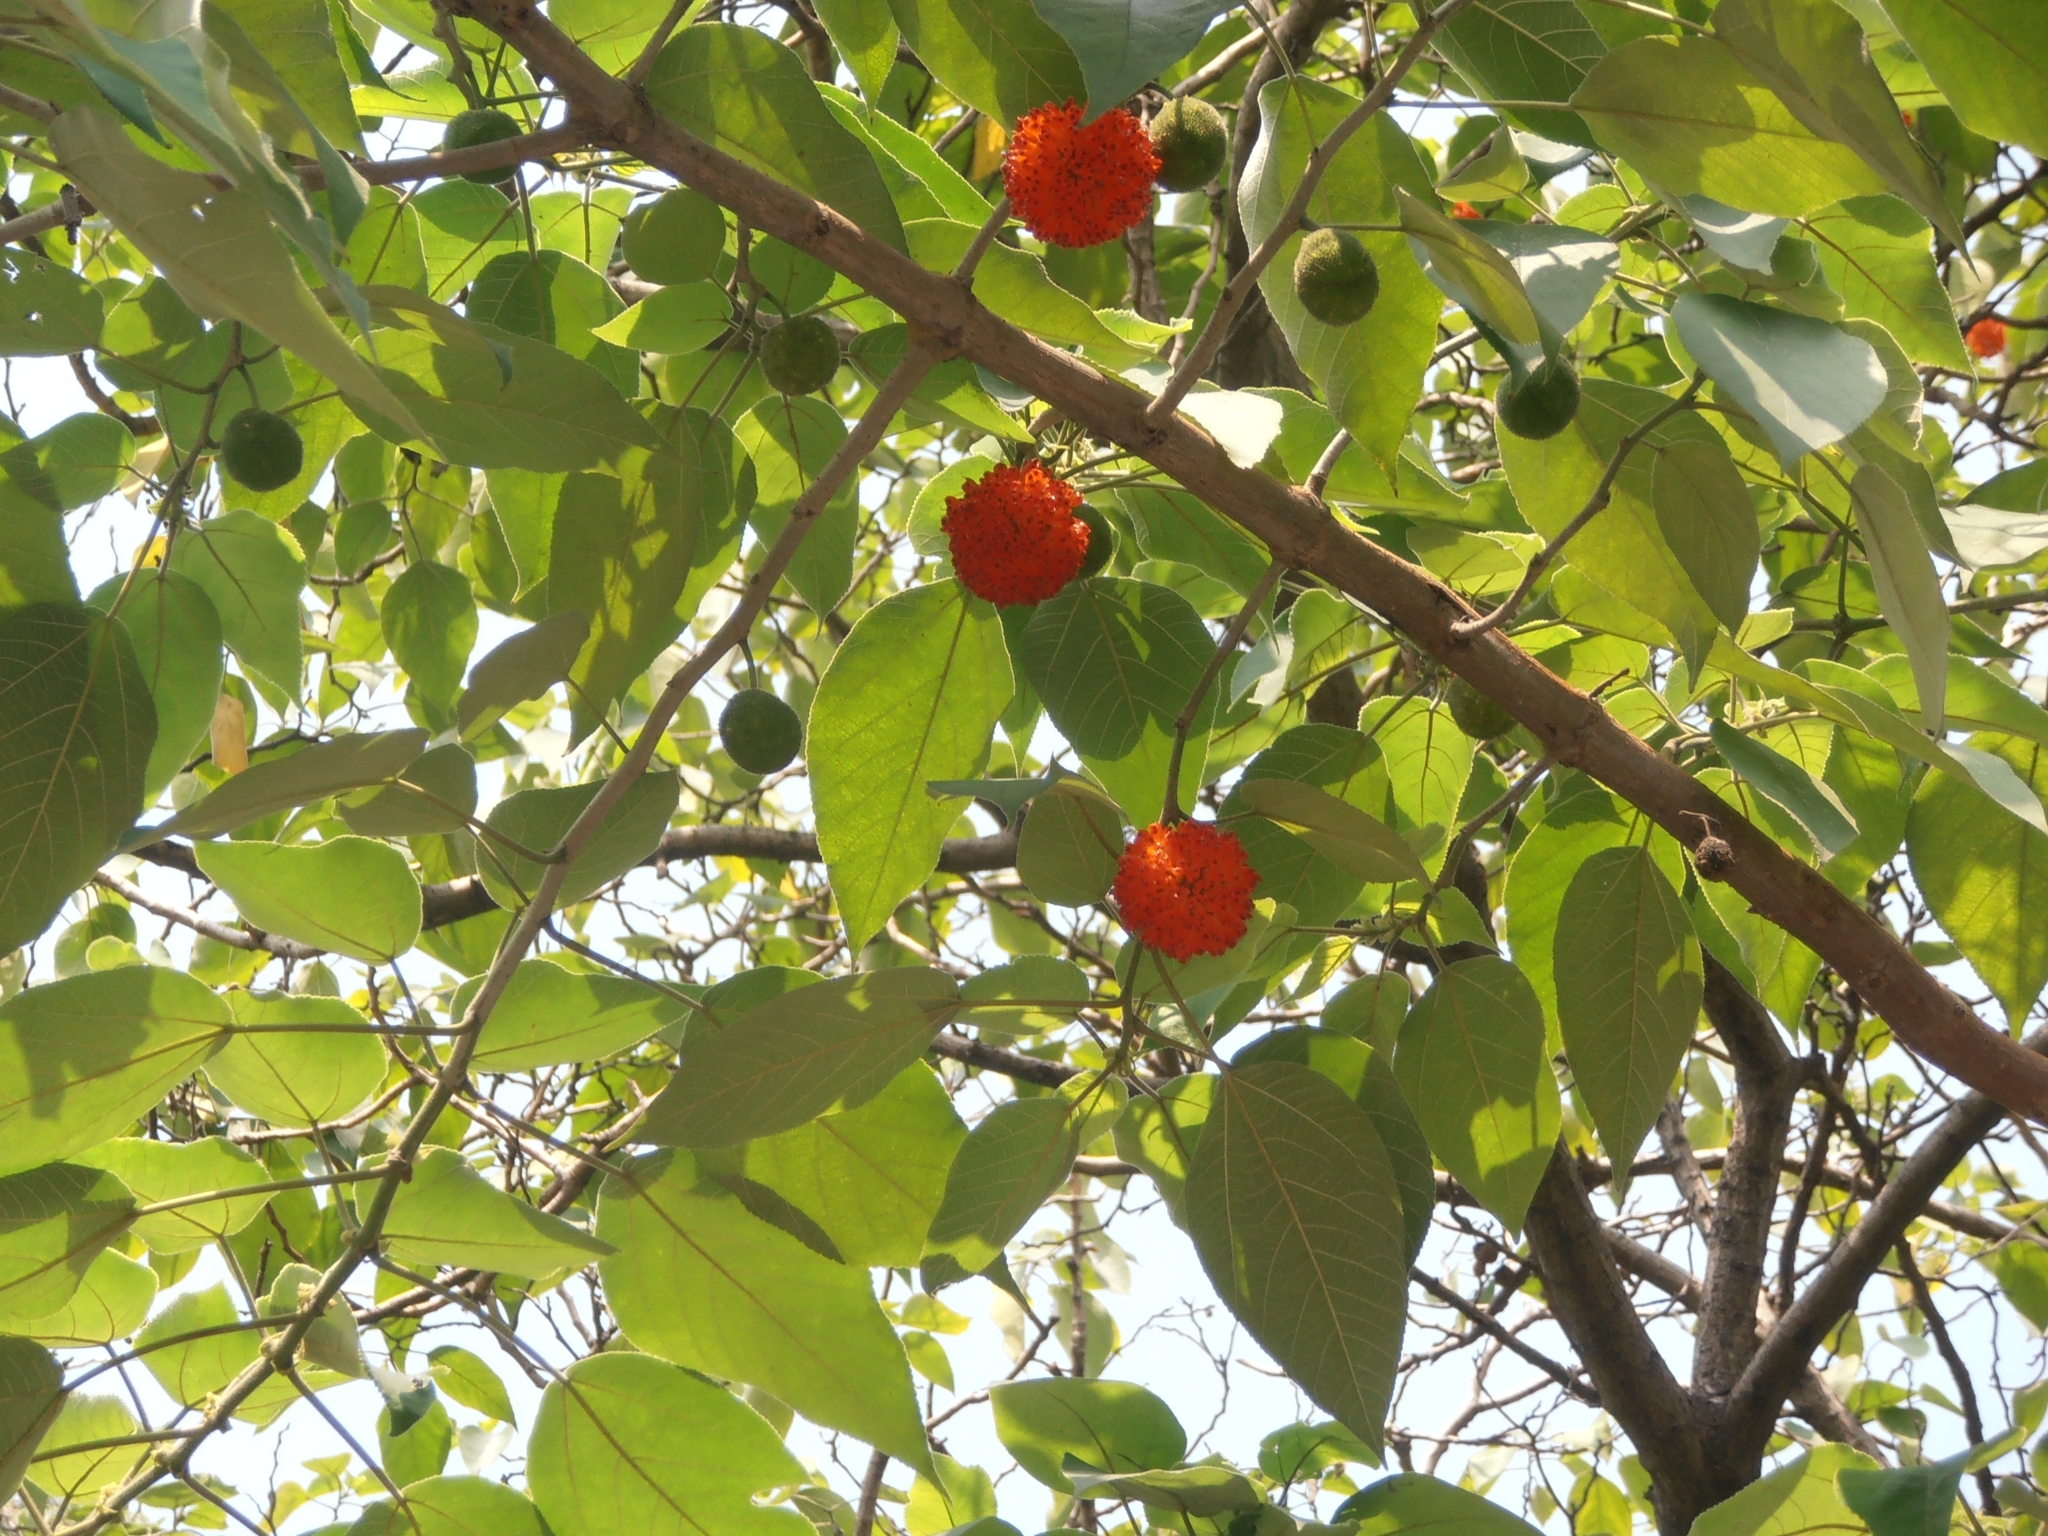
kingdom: Plantae
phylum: Tracheophyta
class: Magnoliopsida
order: Rosales
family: Moraceae
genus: Broussonetia
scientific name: Broussonetia papyrifera
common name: Paper mulberry
